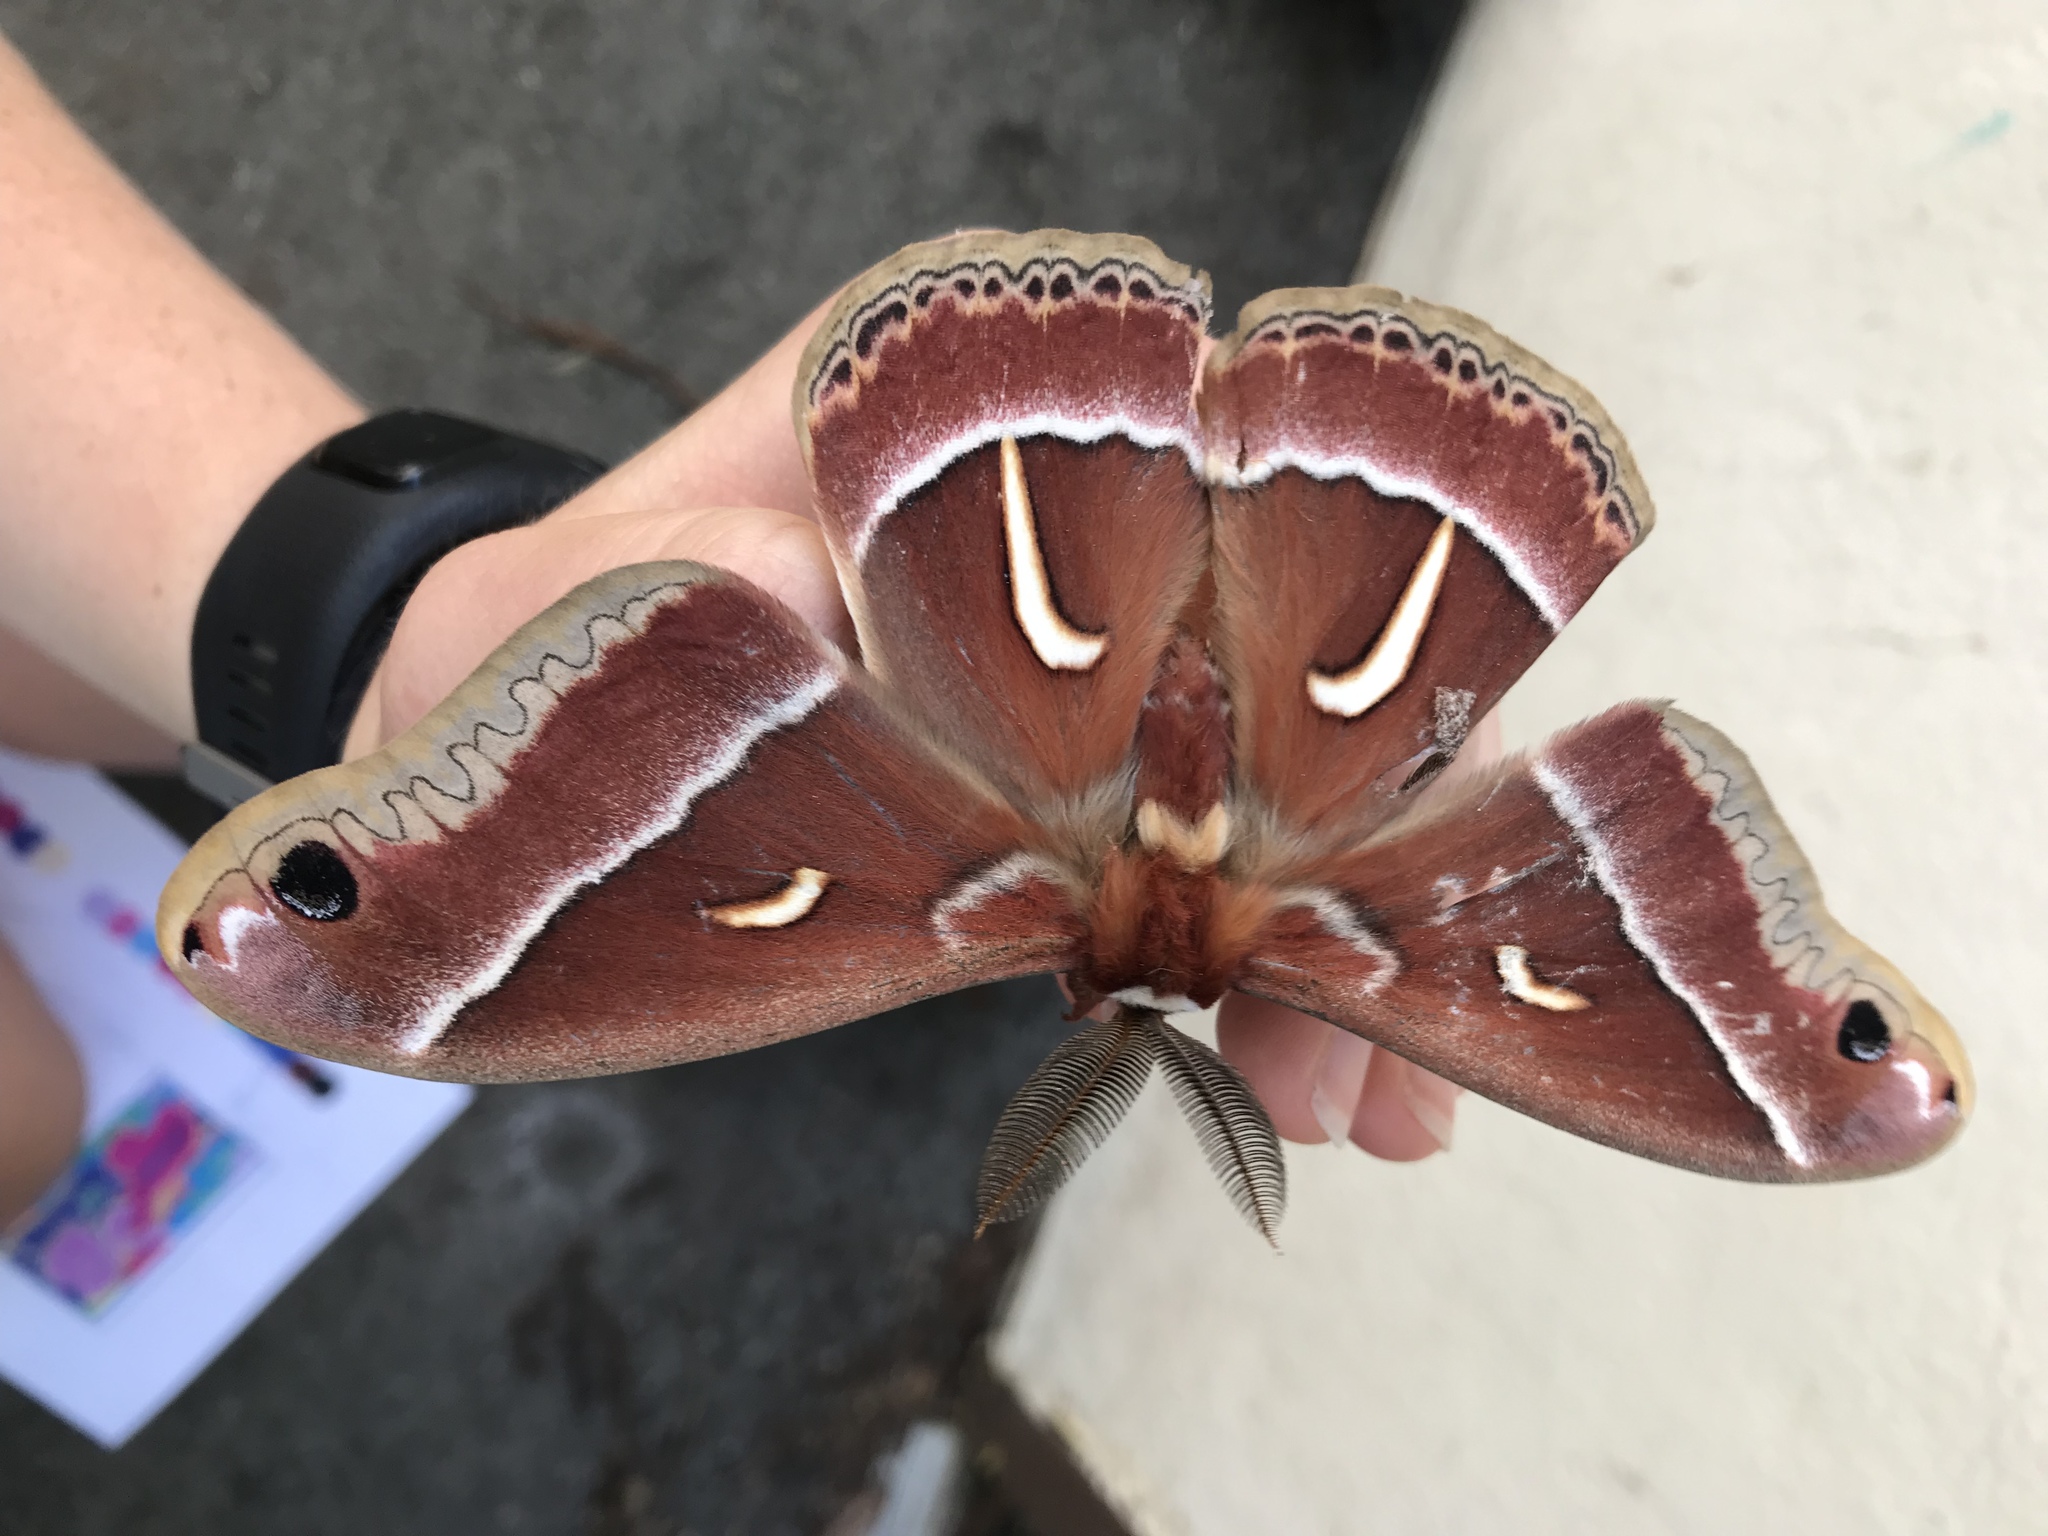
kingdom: Animalia
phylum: Arthropoda
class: Insecta
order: Lepidoptera
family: Saturniidae
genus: Hyalophora
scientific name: Hyalophora euryalus
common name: Ceanothus silkmoth
